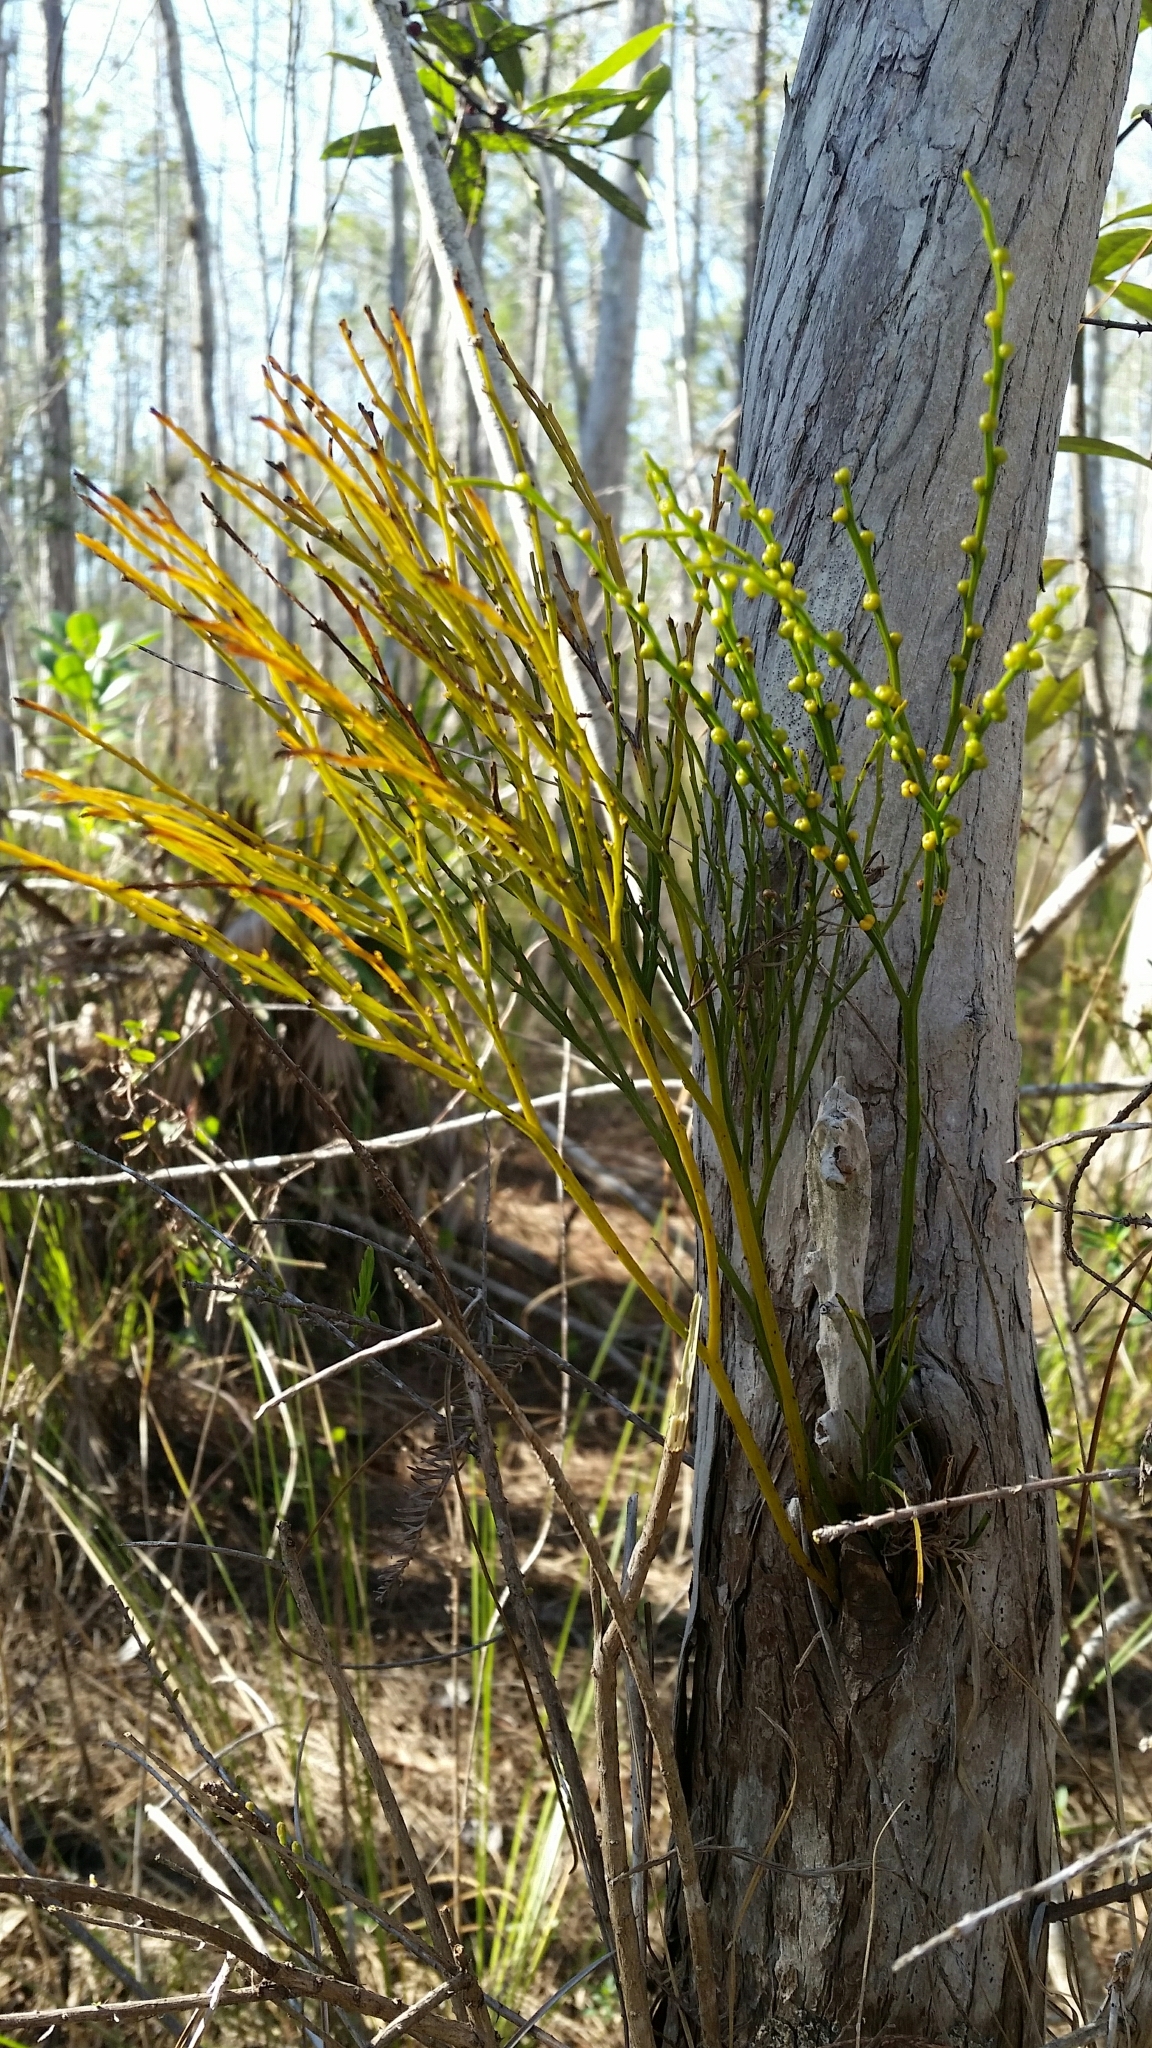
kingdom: Plantae
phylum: Tracheophyta
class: Polypodiopsida
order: Psilotales
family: Psilotaceae
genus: Psilotum
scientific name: Psilotum nudum
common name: Skeleton fork fern
